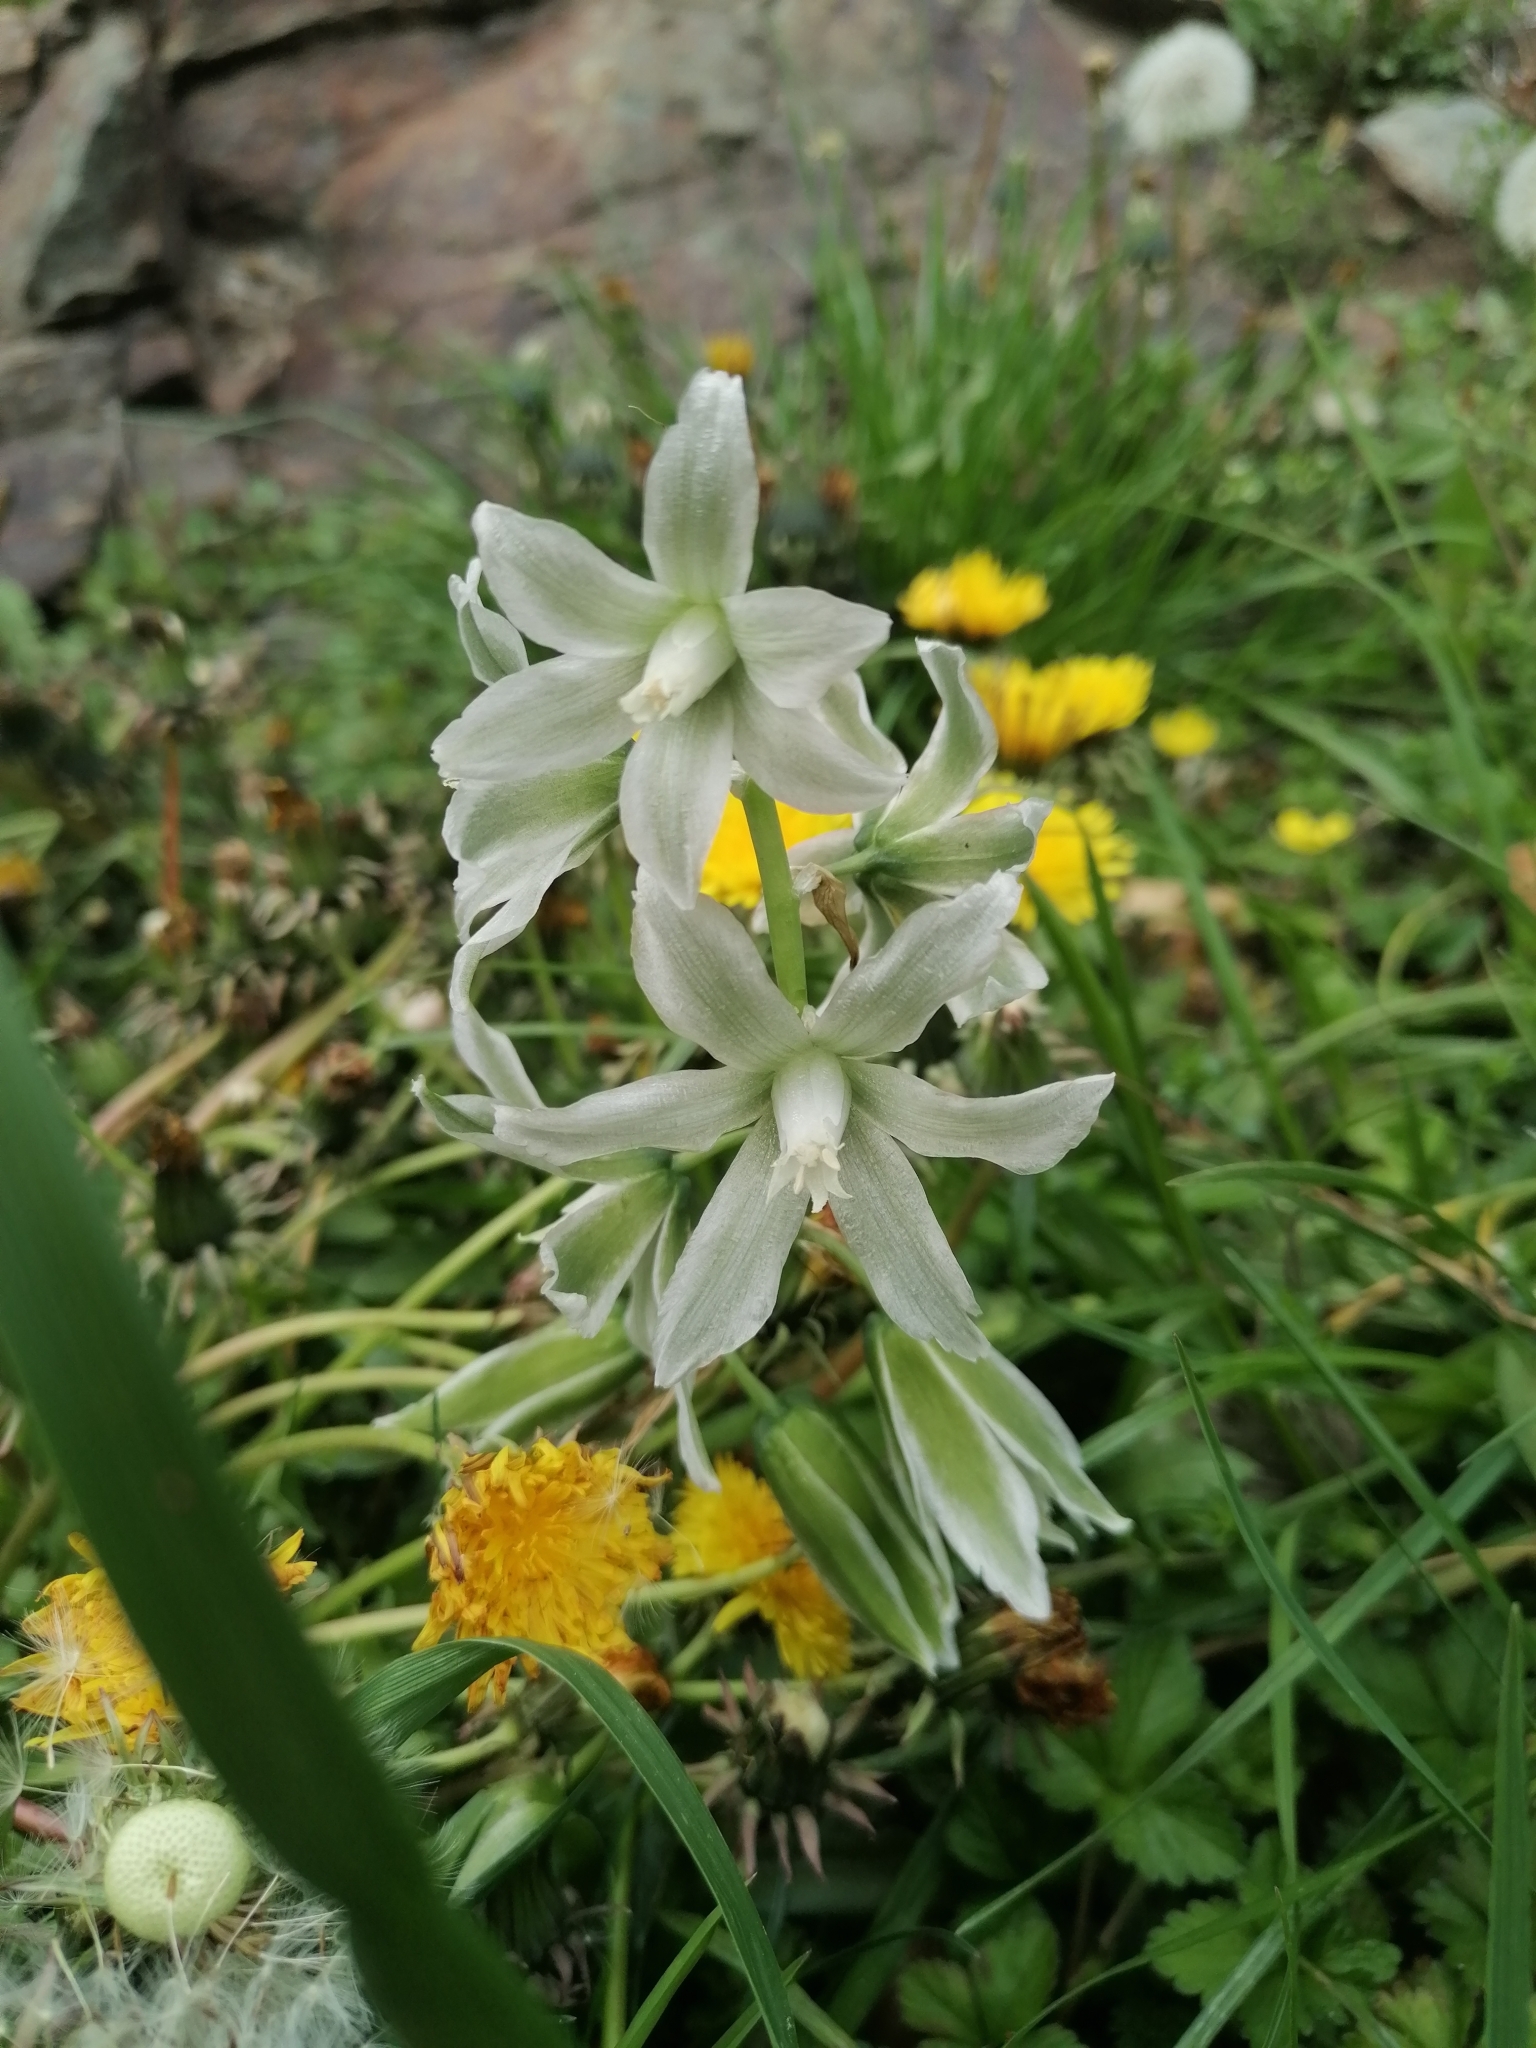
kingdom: Plantae
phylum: Tracheophyta
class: Liliopsida
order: Asparagales
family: Asparagaceae
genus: Ornithogalum
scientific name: Ornithogalum boucheanum
